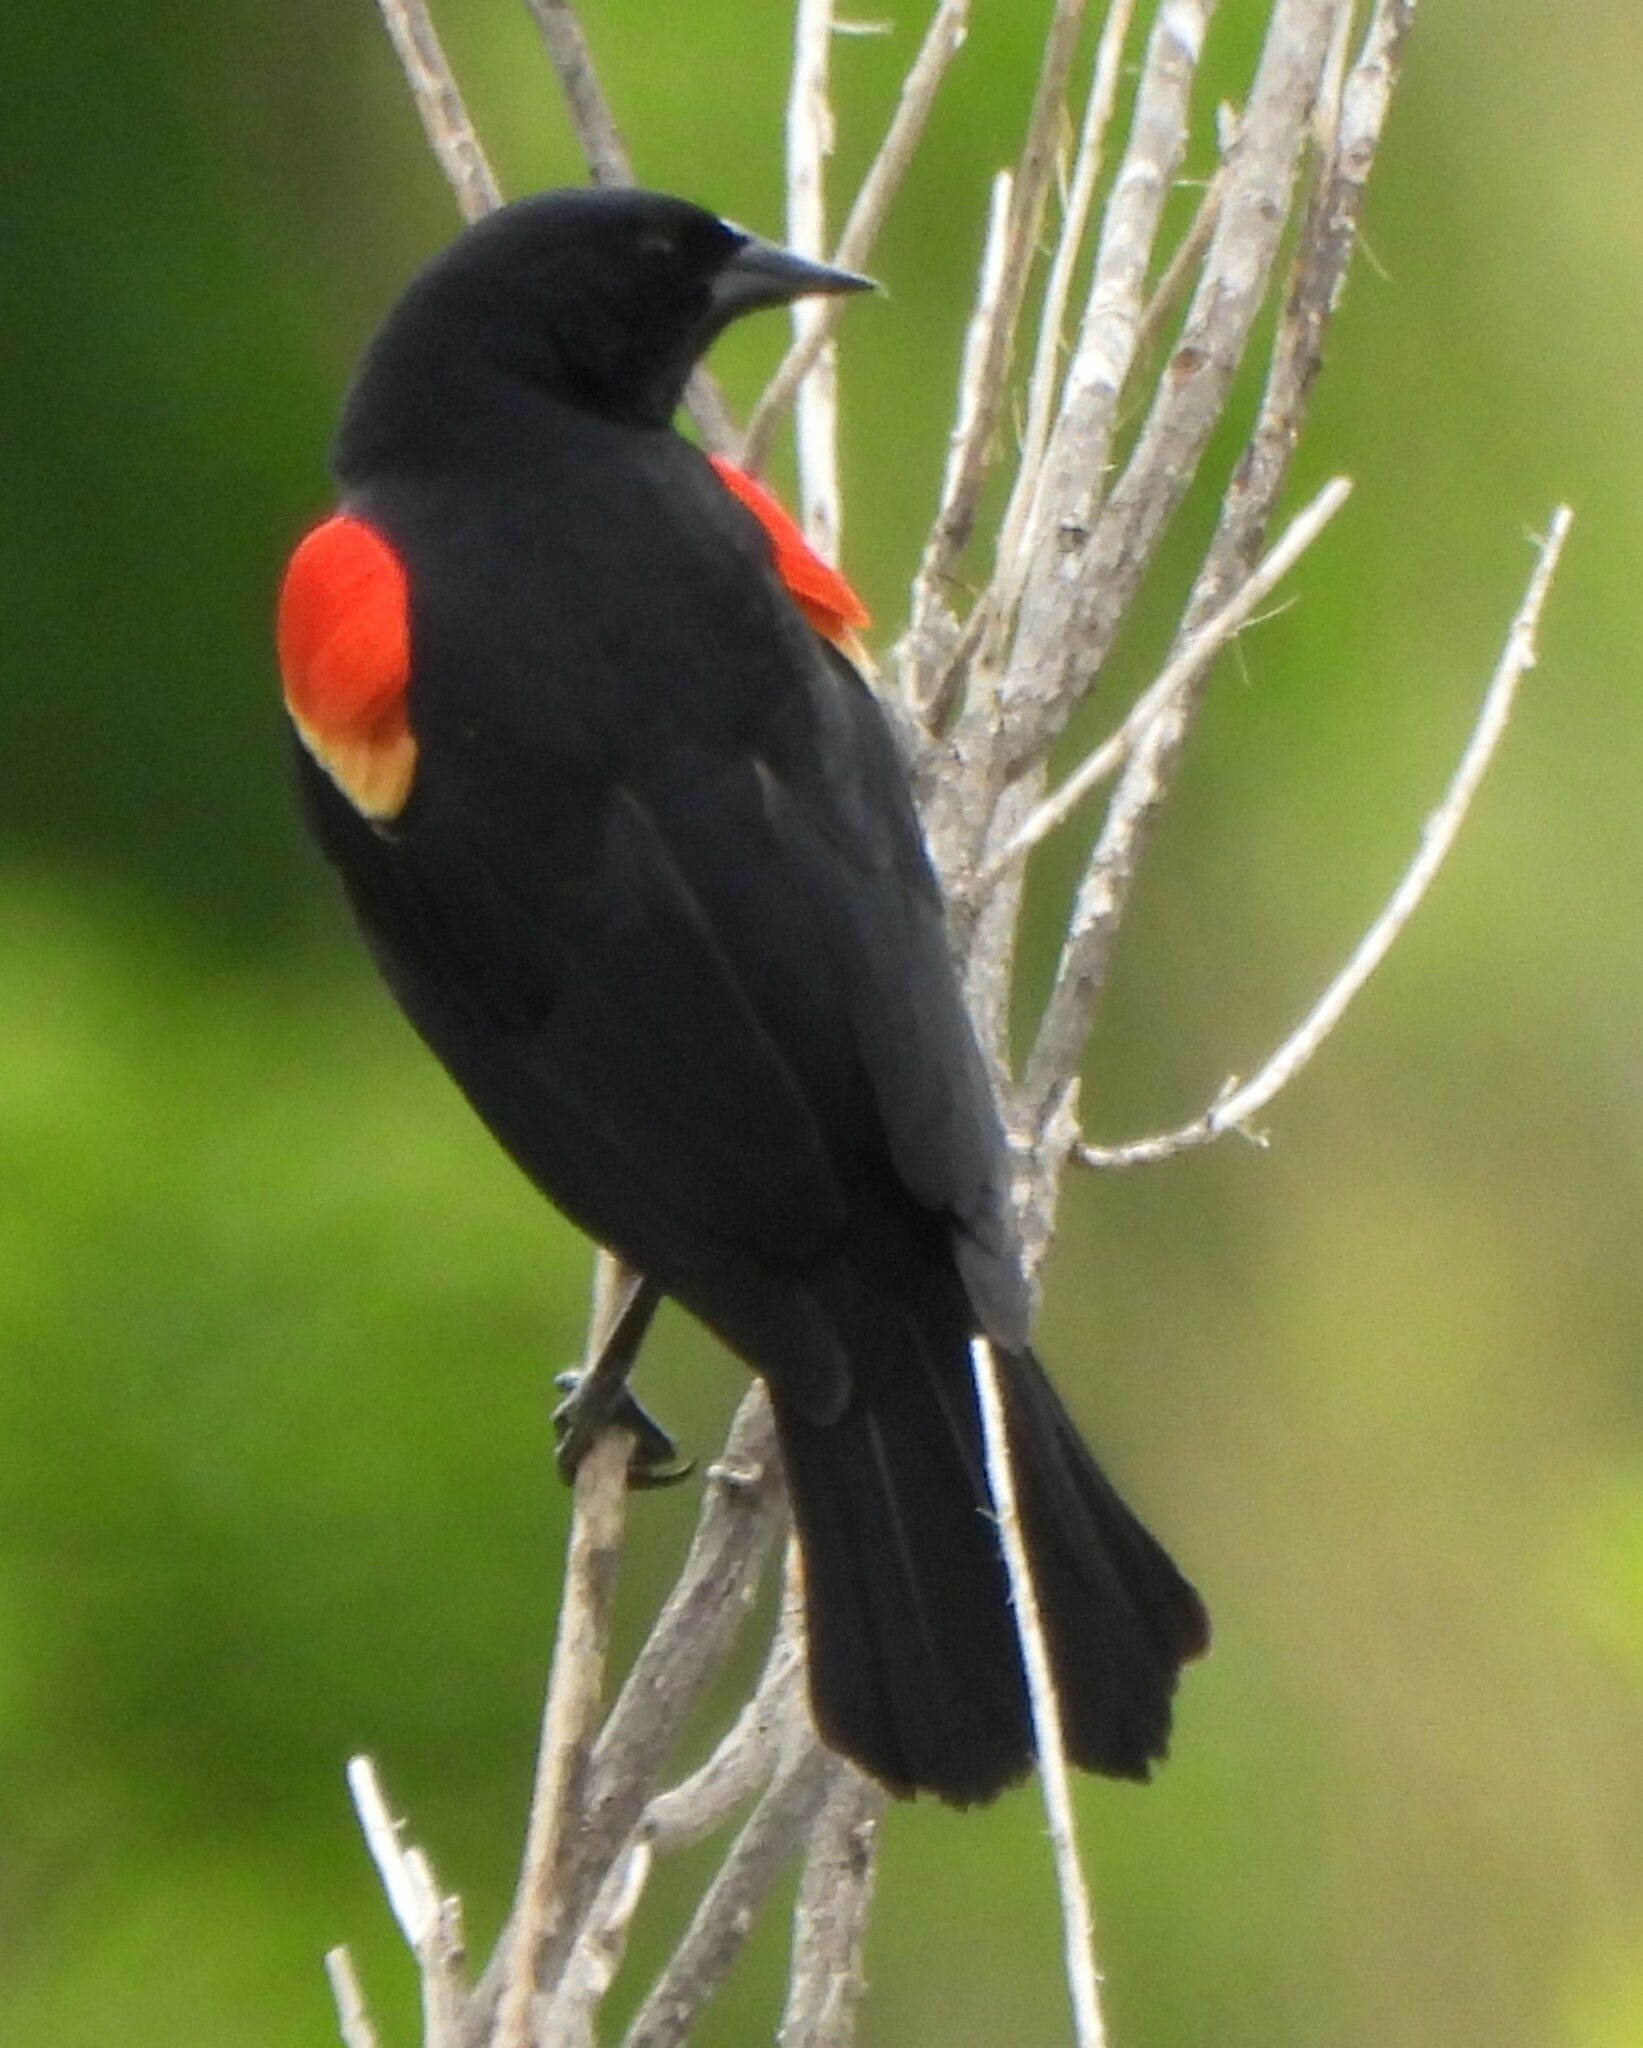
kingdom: Animalia
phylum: Chordata
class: Aves
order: Passeriformes
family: Icteridae
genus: Agelaius
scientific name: Agelaius phoeniceus
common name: Red-winged blackbird
